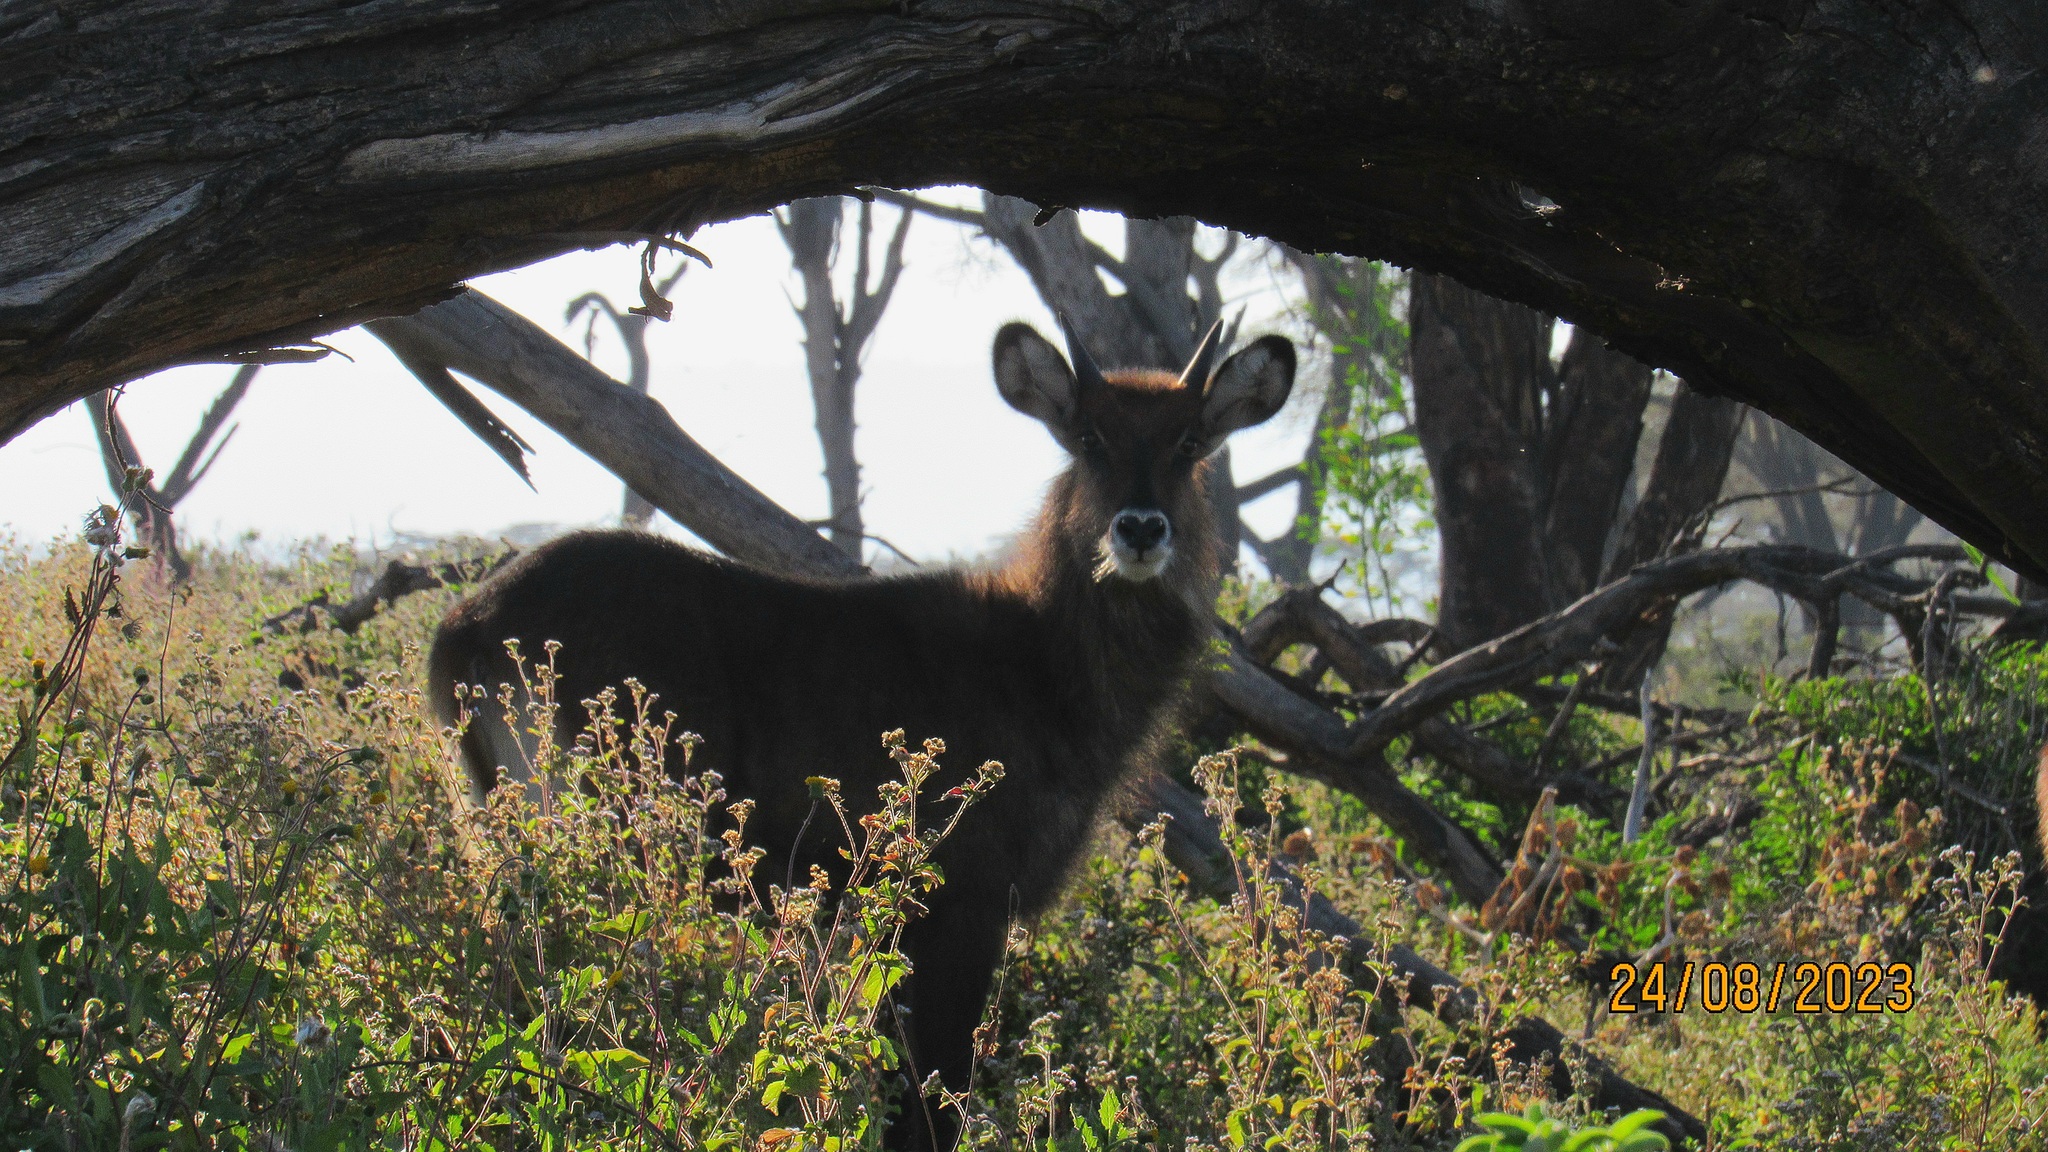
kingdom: Animalia
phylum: Chordata
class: Mammalia
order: Artiodactyla
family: Bovidae
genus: Kobus
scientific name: Kobus ellipsiprymnus
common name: Waterbuck
